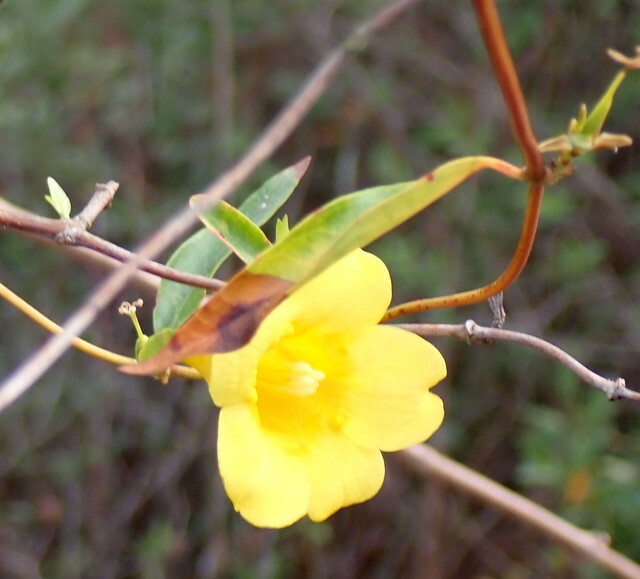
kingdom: Plantae
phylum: Tracheophyta
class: Magnoliopsida
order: Gentianales
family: Gelsemiaceae
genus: Gelsemium
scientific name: Gelsemium sempervirens
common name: Carolina-jasmine
